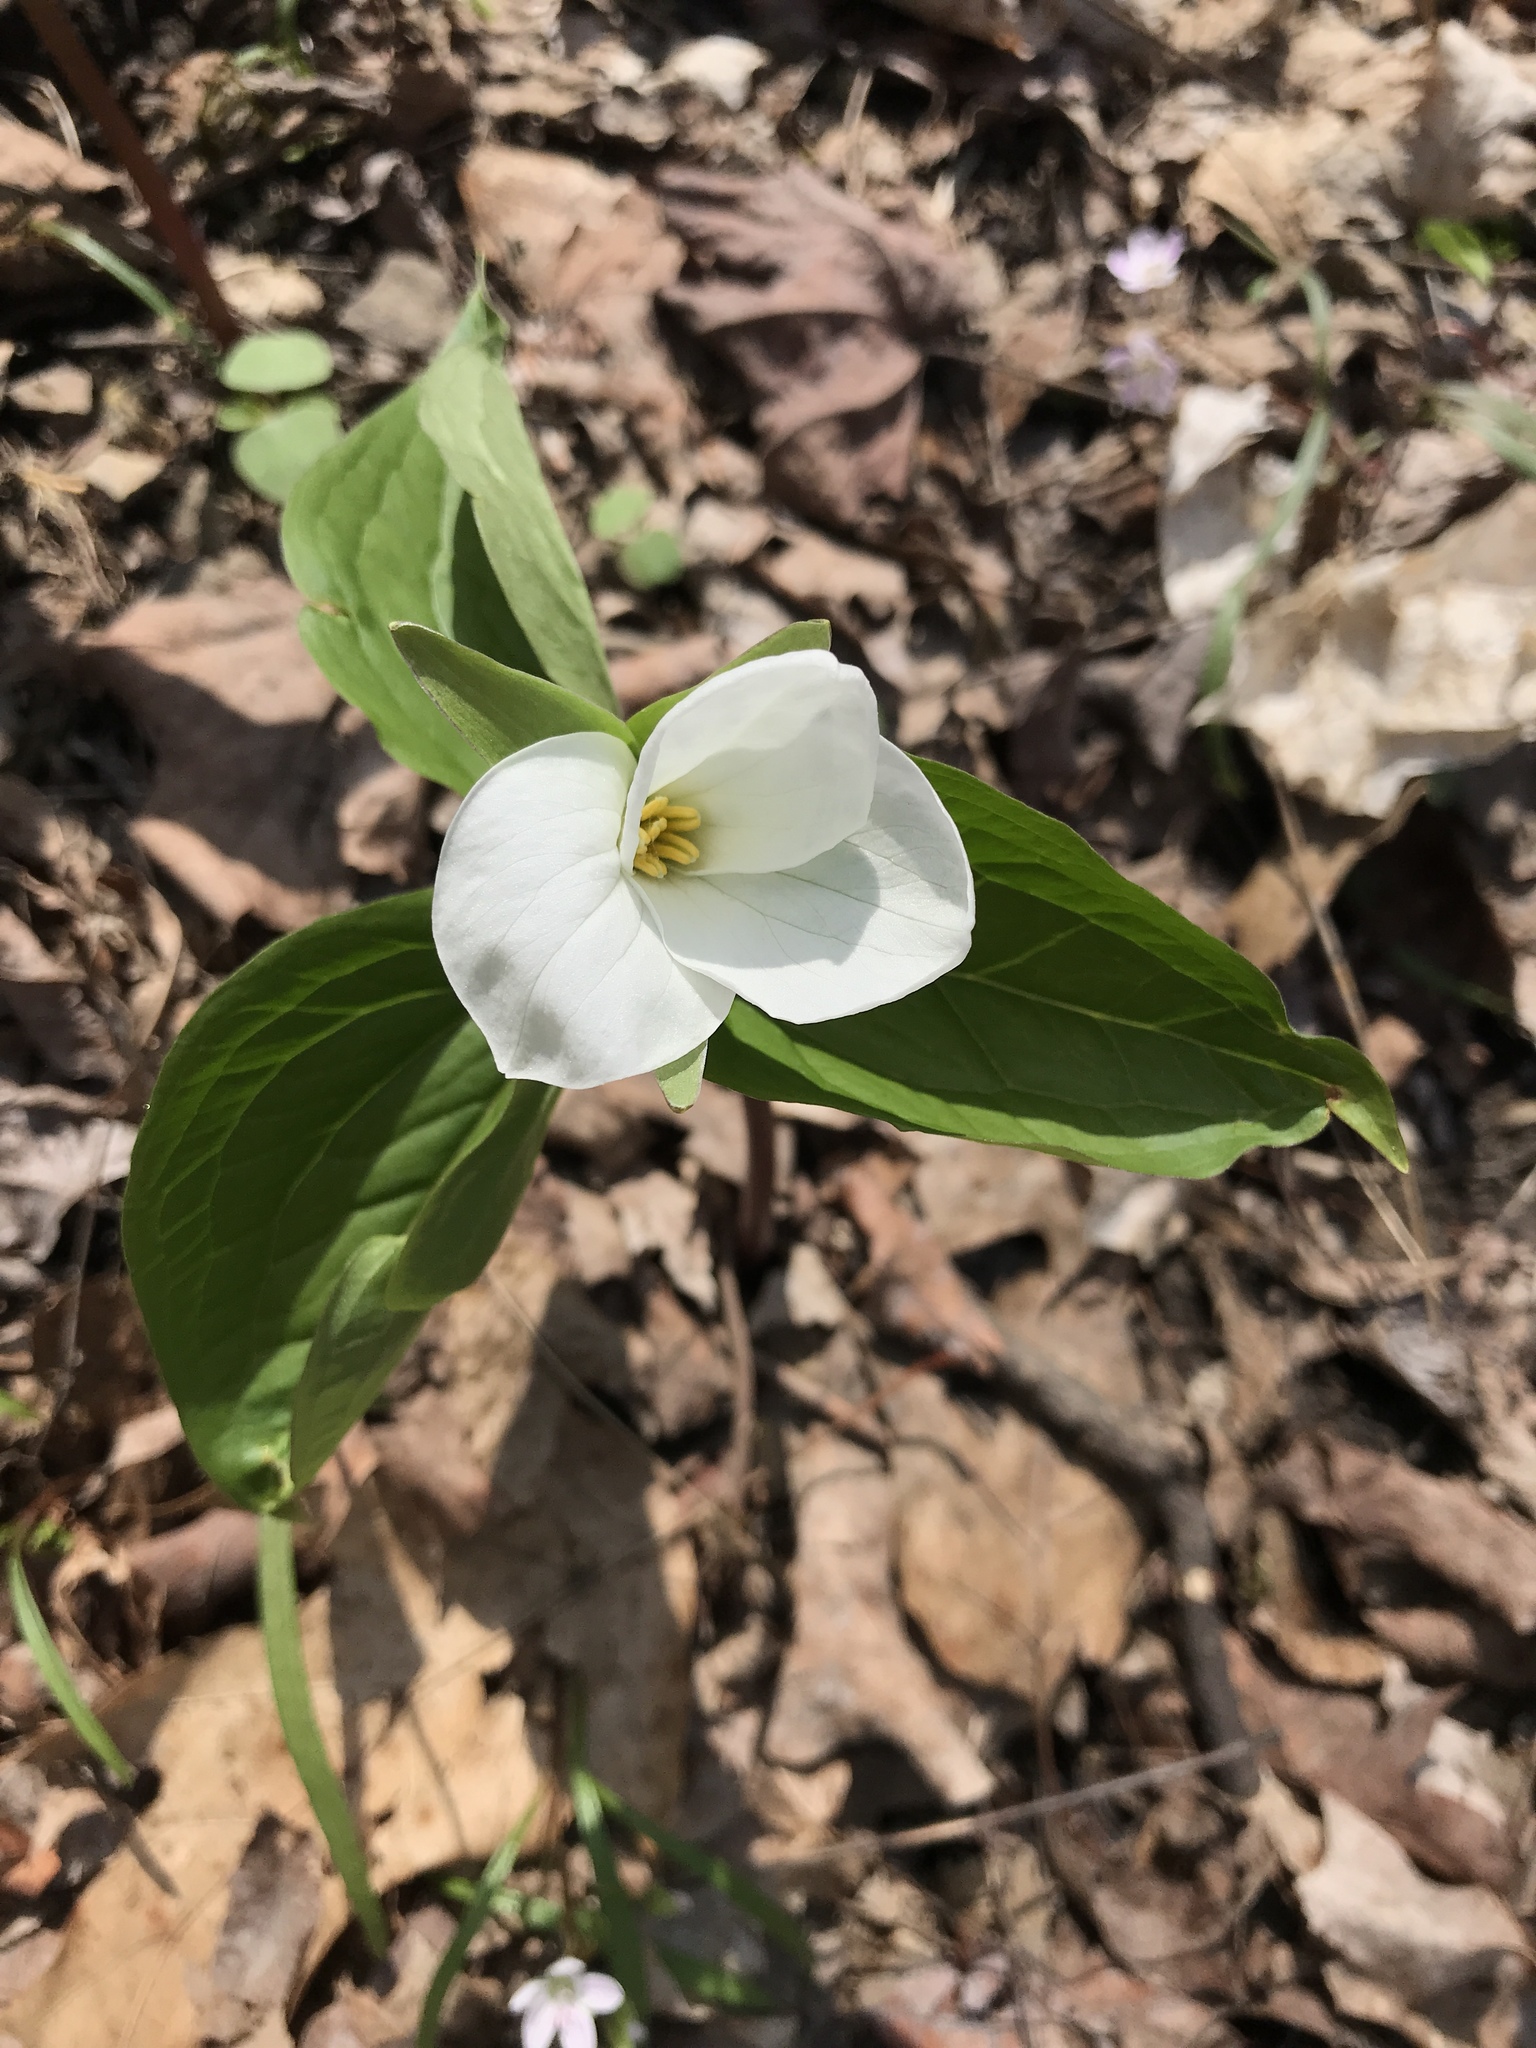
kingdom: Plantae
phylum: Tracheophyta
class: Liliopsida
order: Liliales
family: Melanthiaceae
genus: Trillium
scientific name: Trillium grandiflorum
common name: Great white trillium
